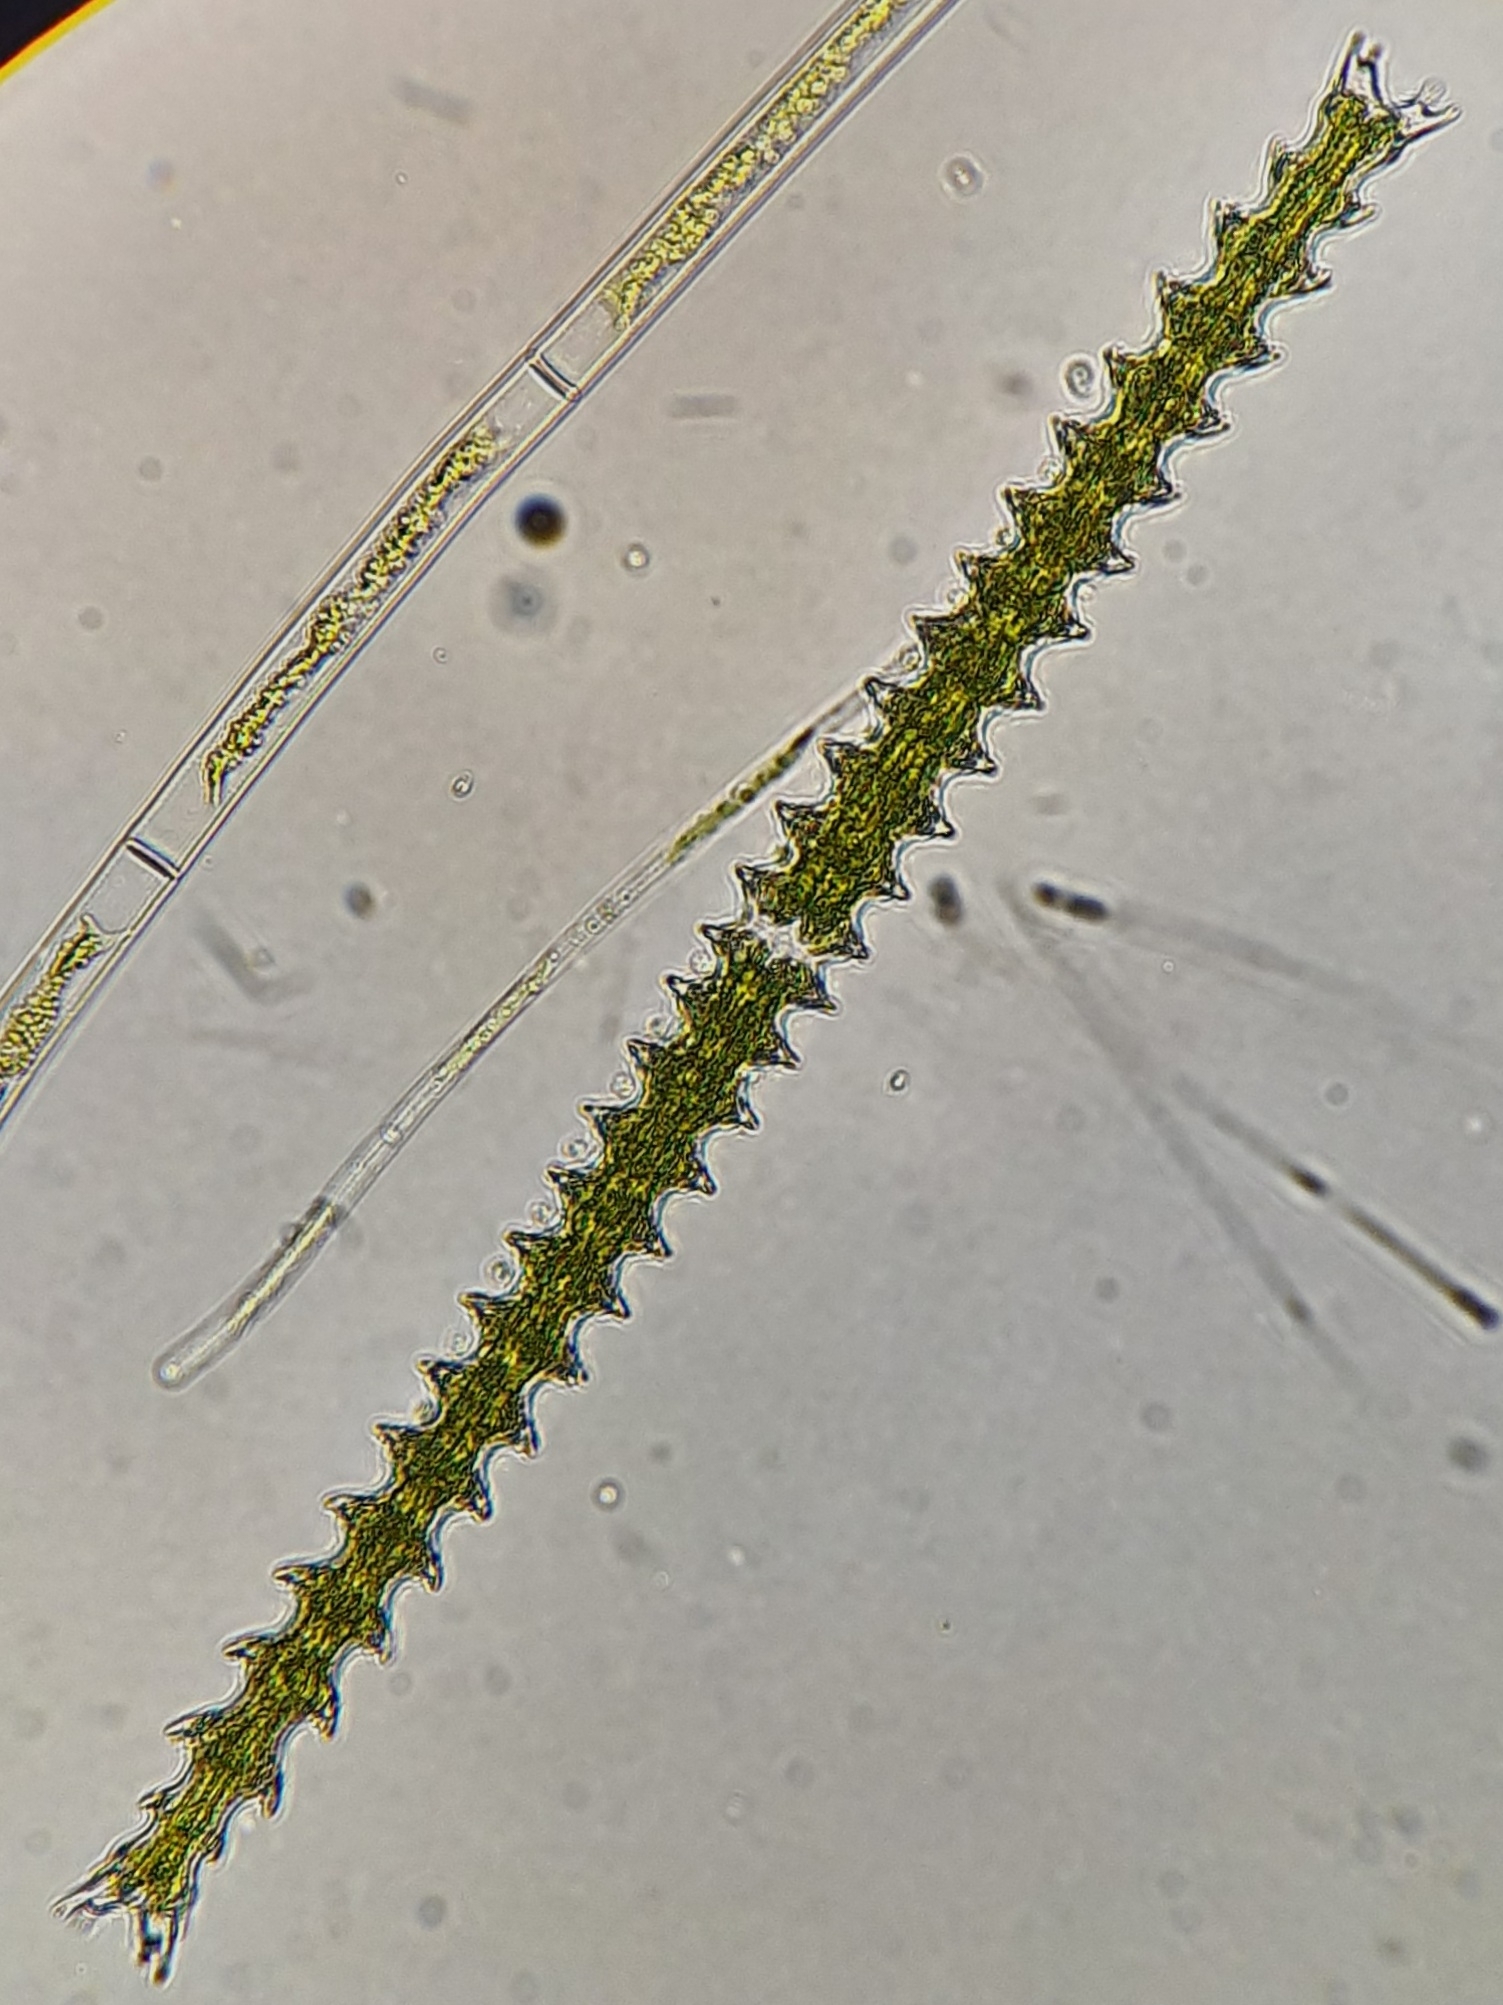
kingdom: Plantae
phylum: Charophyta
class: Conjugatophyceae
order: Desmidiales
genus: Triploceras
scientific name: Triploceras gracile
